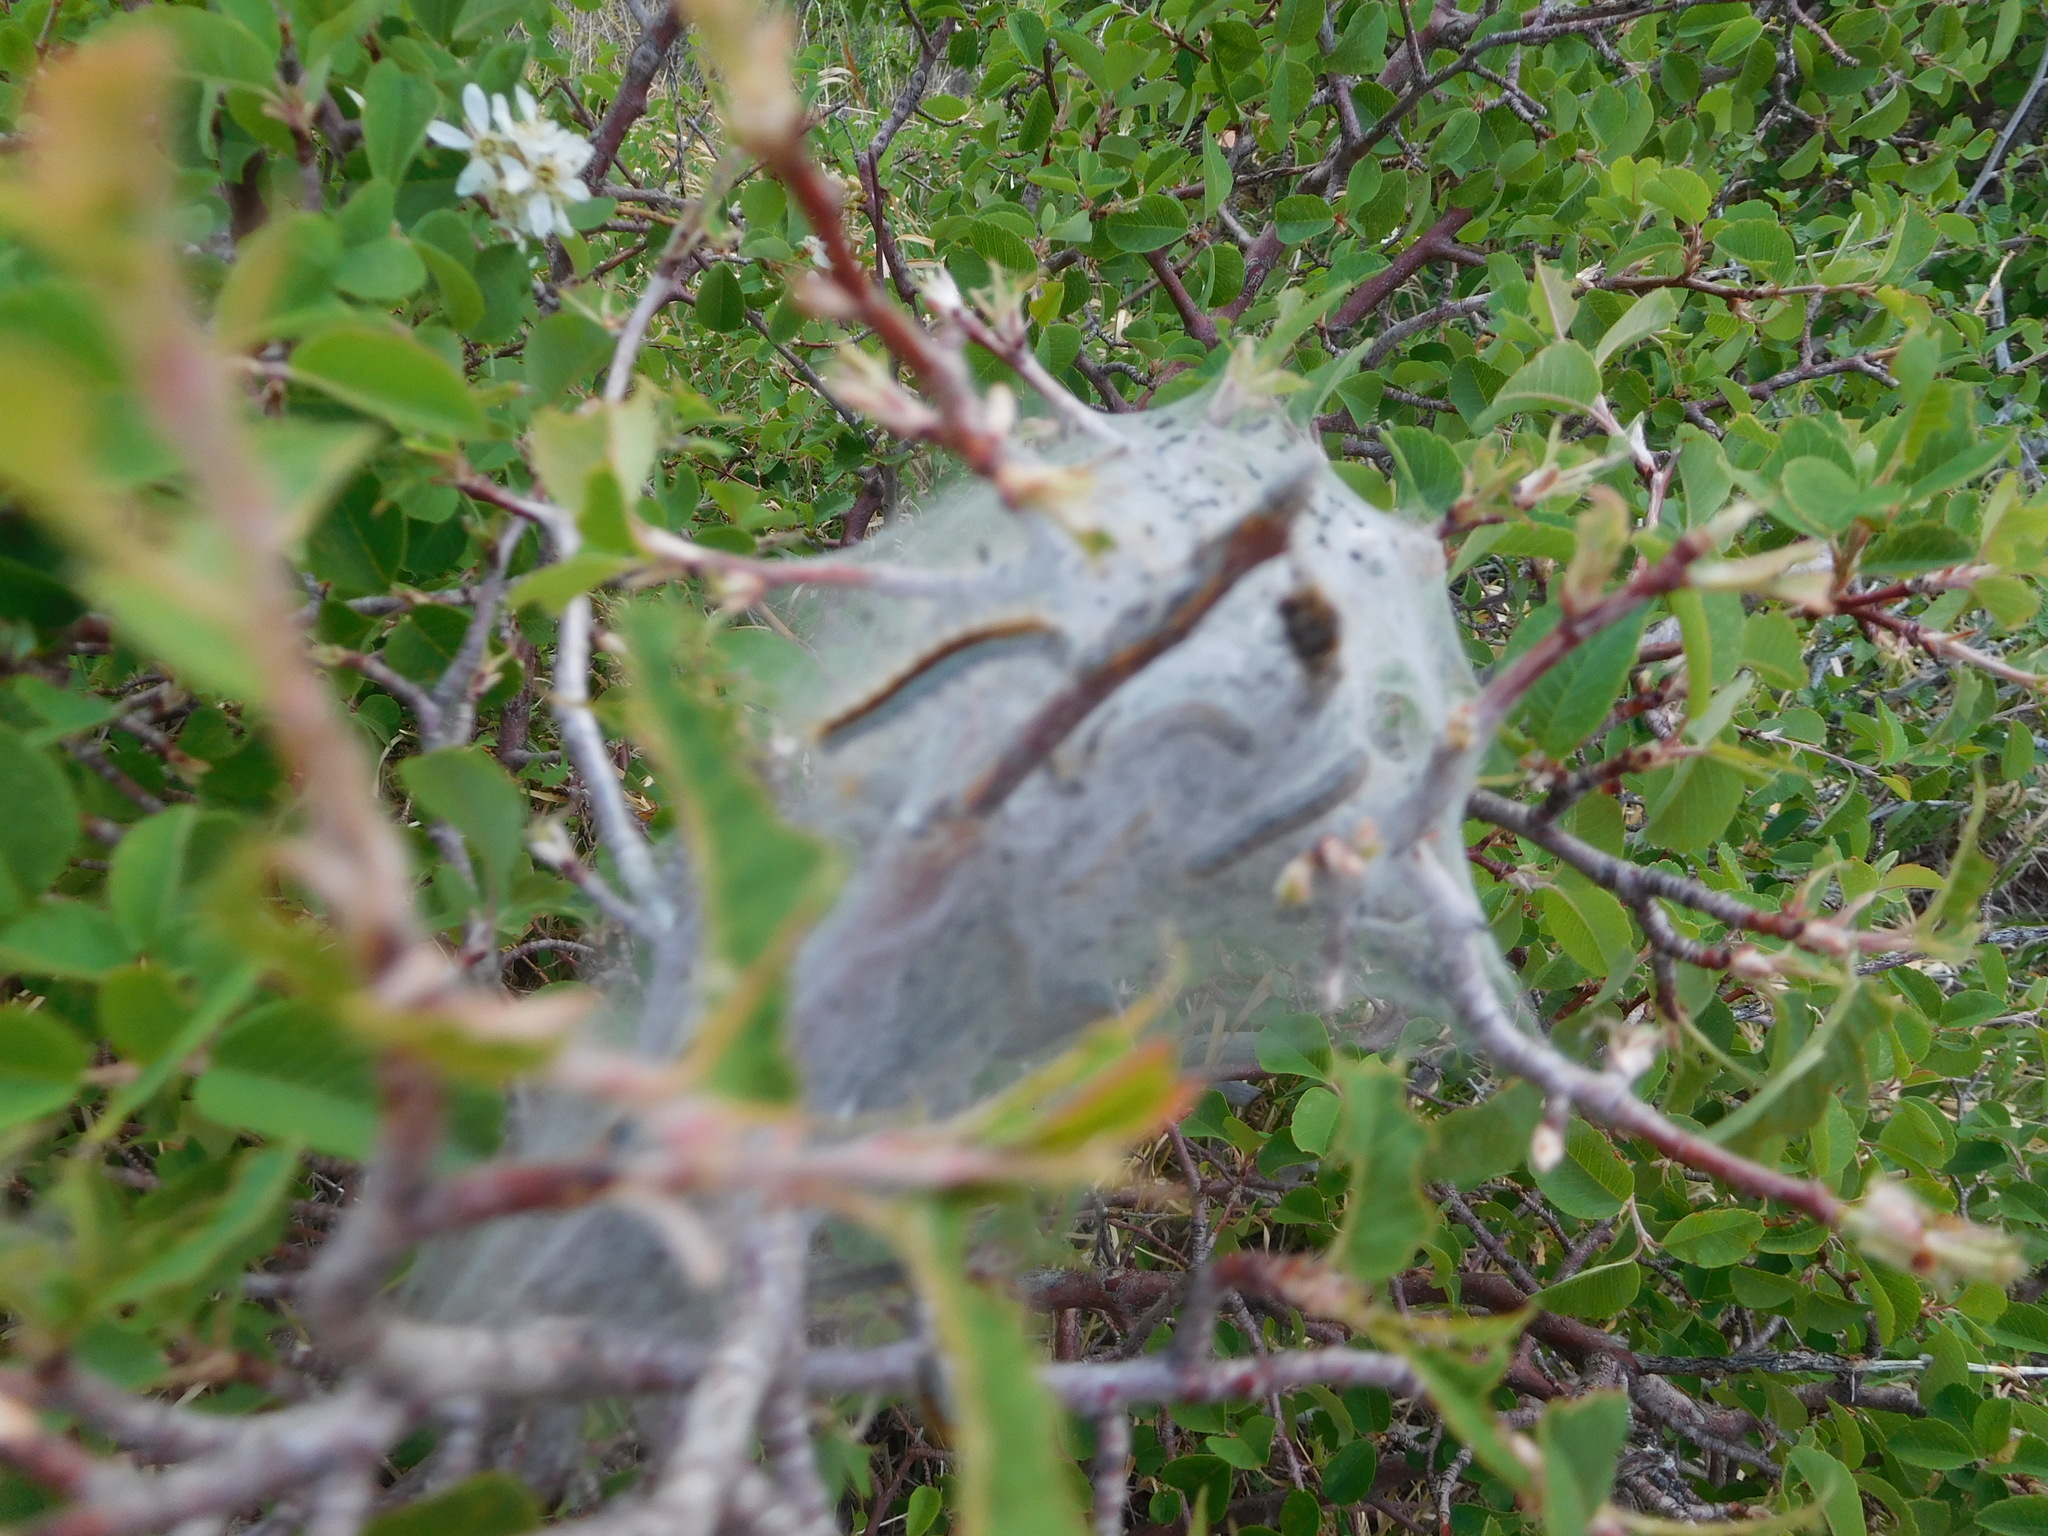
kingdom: Animalia
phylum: Arthropoda
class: Insecta
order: Lepidoptera
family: Lasiocampidae
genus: Malacosoma
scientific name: Malacosoma incurva
